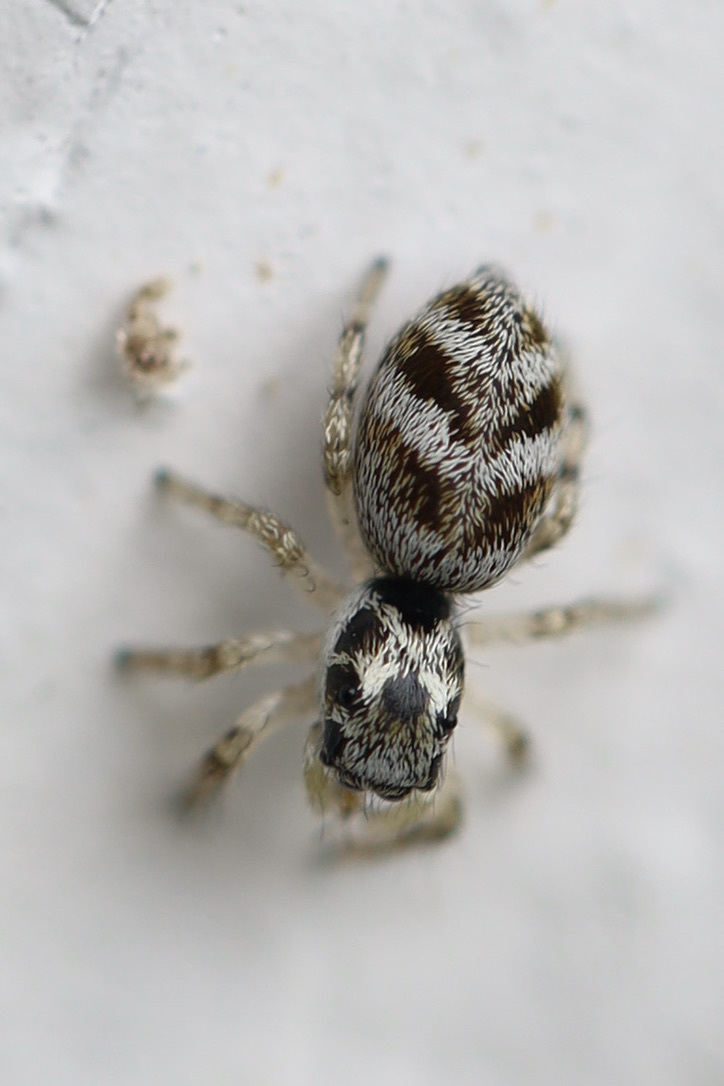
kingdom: Animalia
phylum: Arthropoda
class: Arachnida
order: Araneae
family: Salticidae
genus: Salticus
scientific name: Salticus scenicus
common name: Zebra jumper
